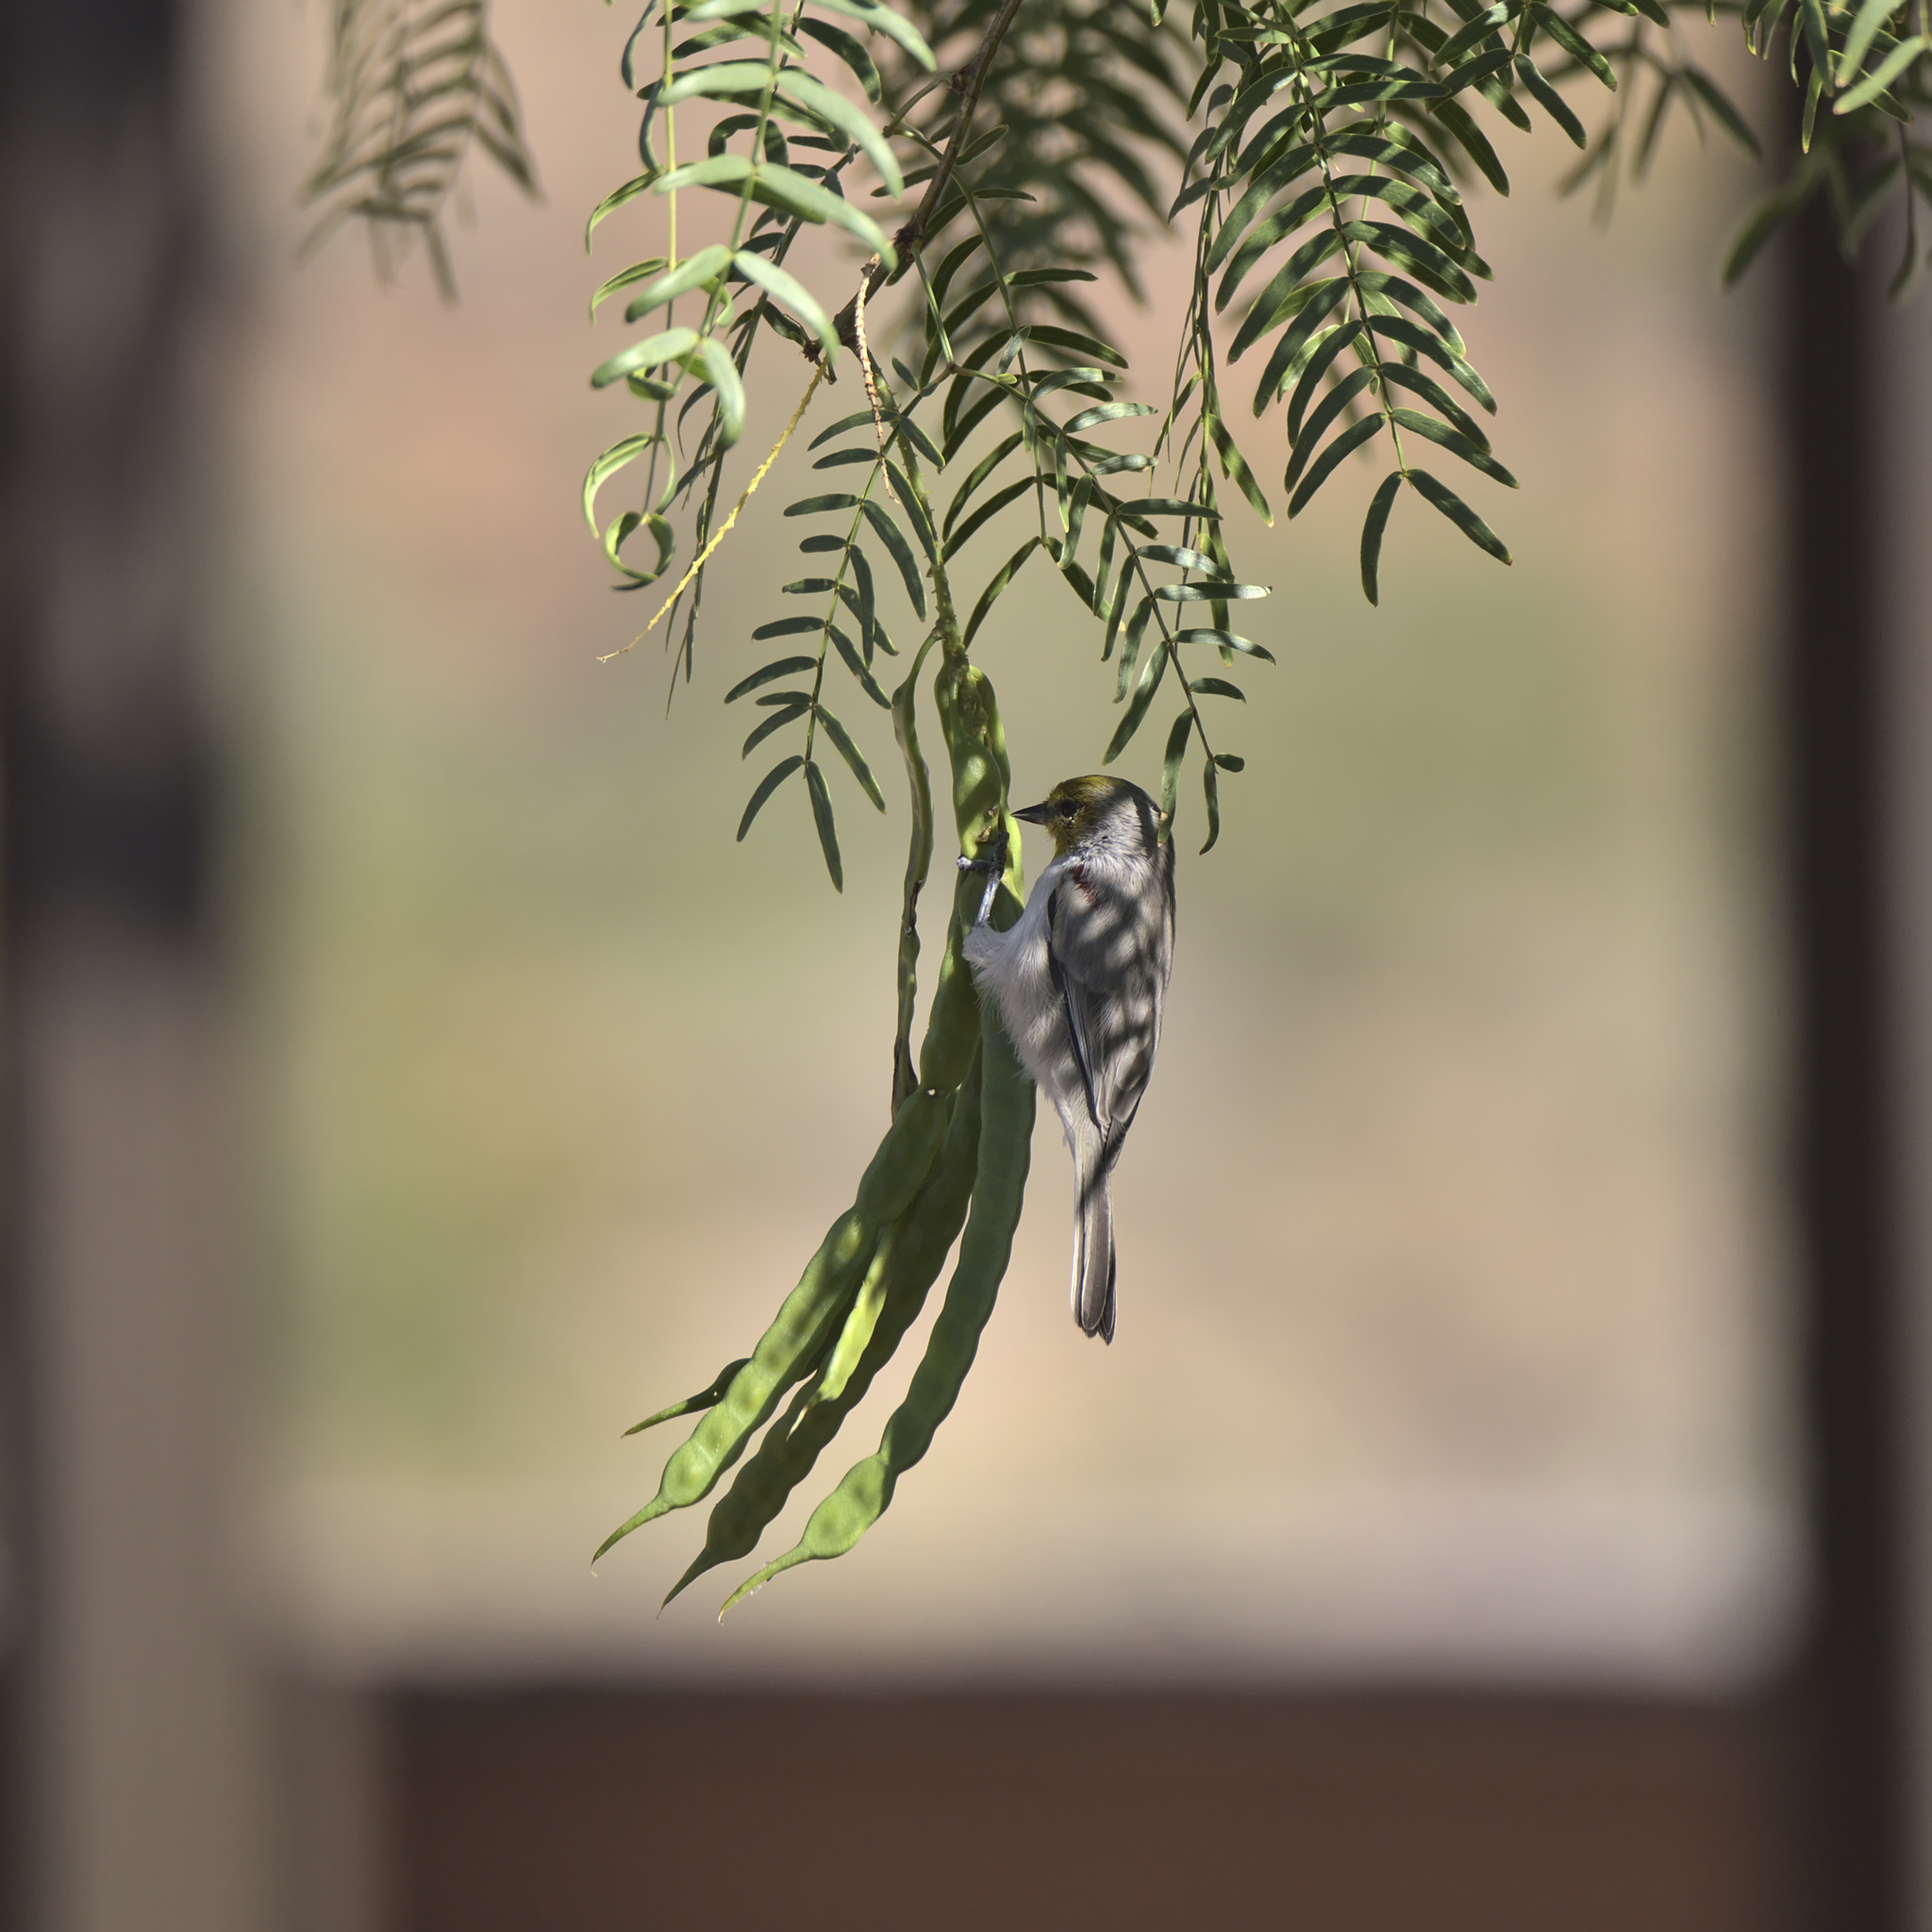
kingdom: Animalia
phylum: Chordata
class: Aves
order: Passeriformes
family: Remizidae
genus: Auriparus
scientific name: Auriparus flaviceps
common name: Verdin
